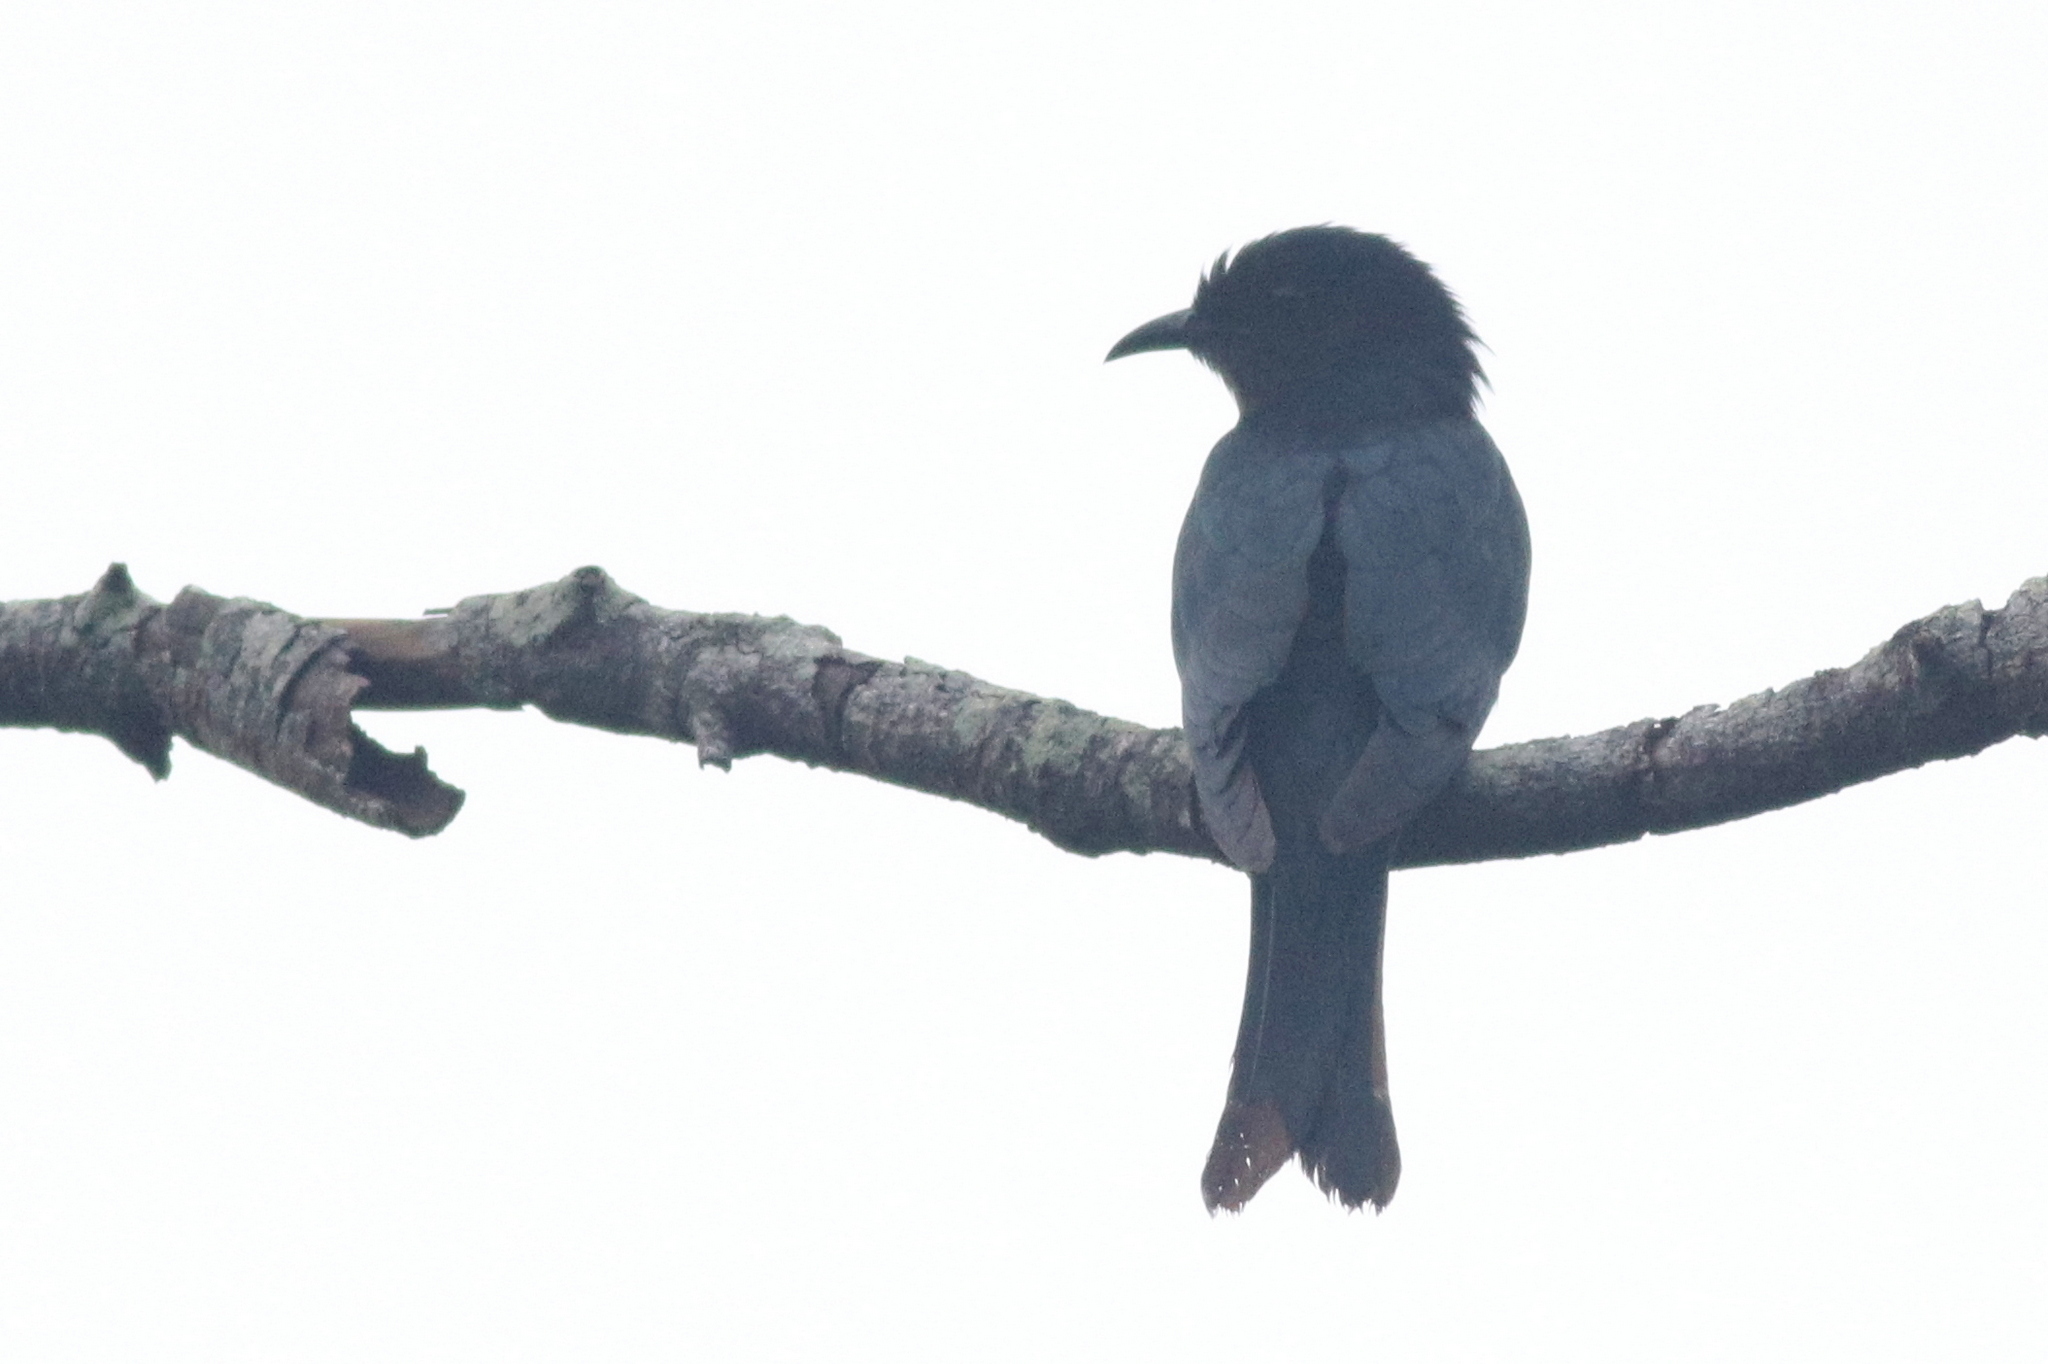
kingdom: Animalia
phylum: Chordata
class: Aves
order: Cuculiformes
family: Cuculidae
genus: Surniculus
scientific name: Surniculus lugubris
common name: Square-tailed drongo-cuckoo
